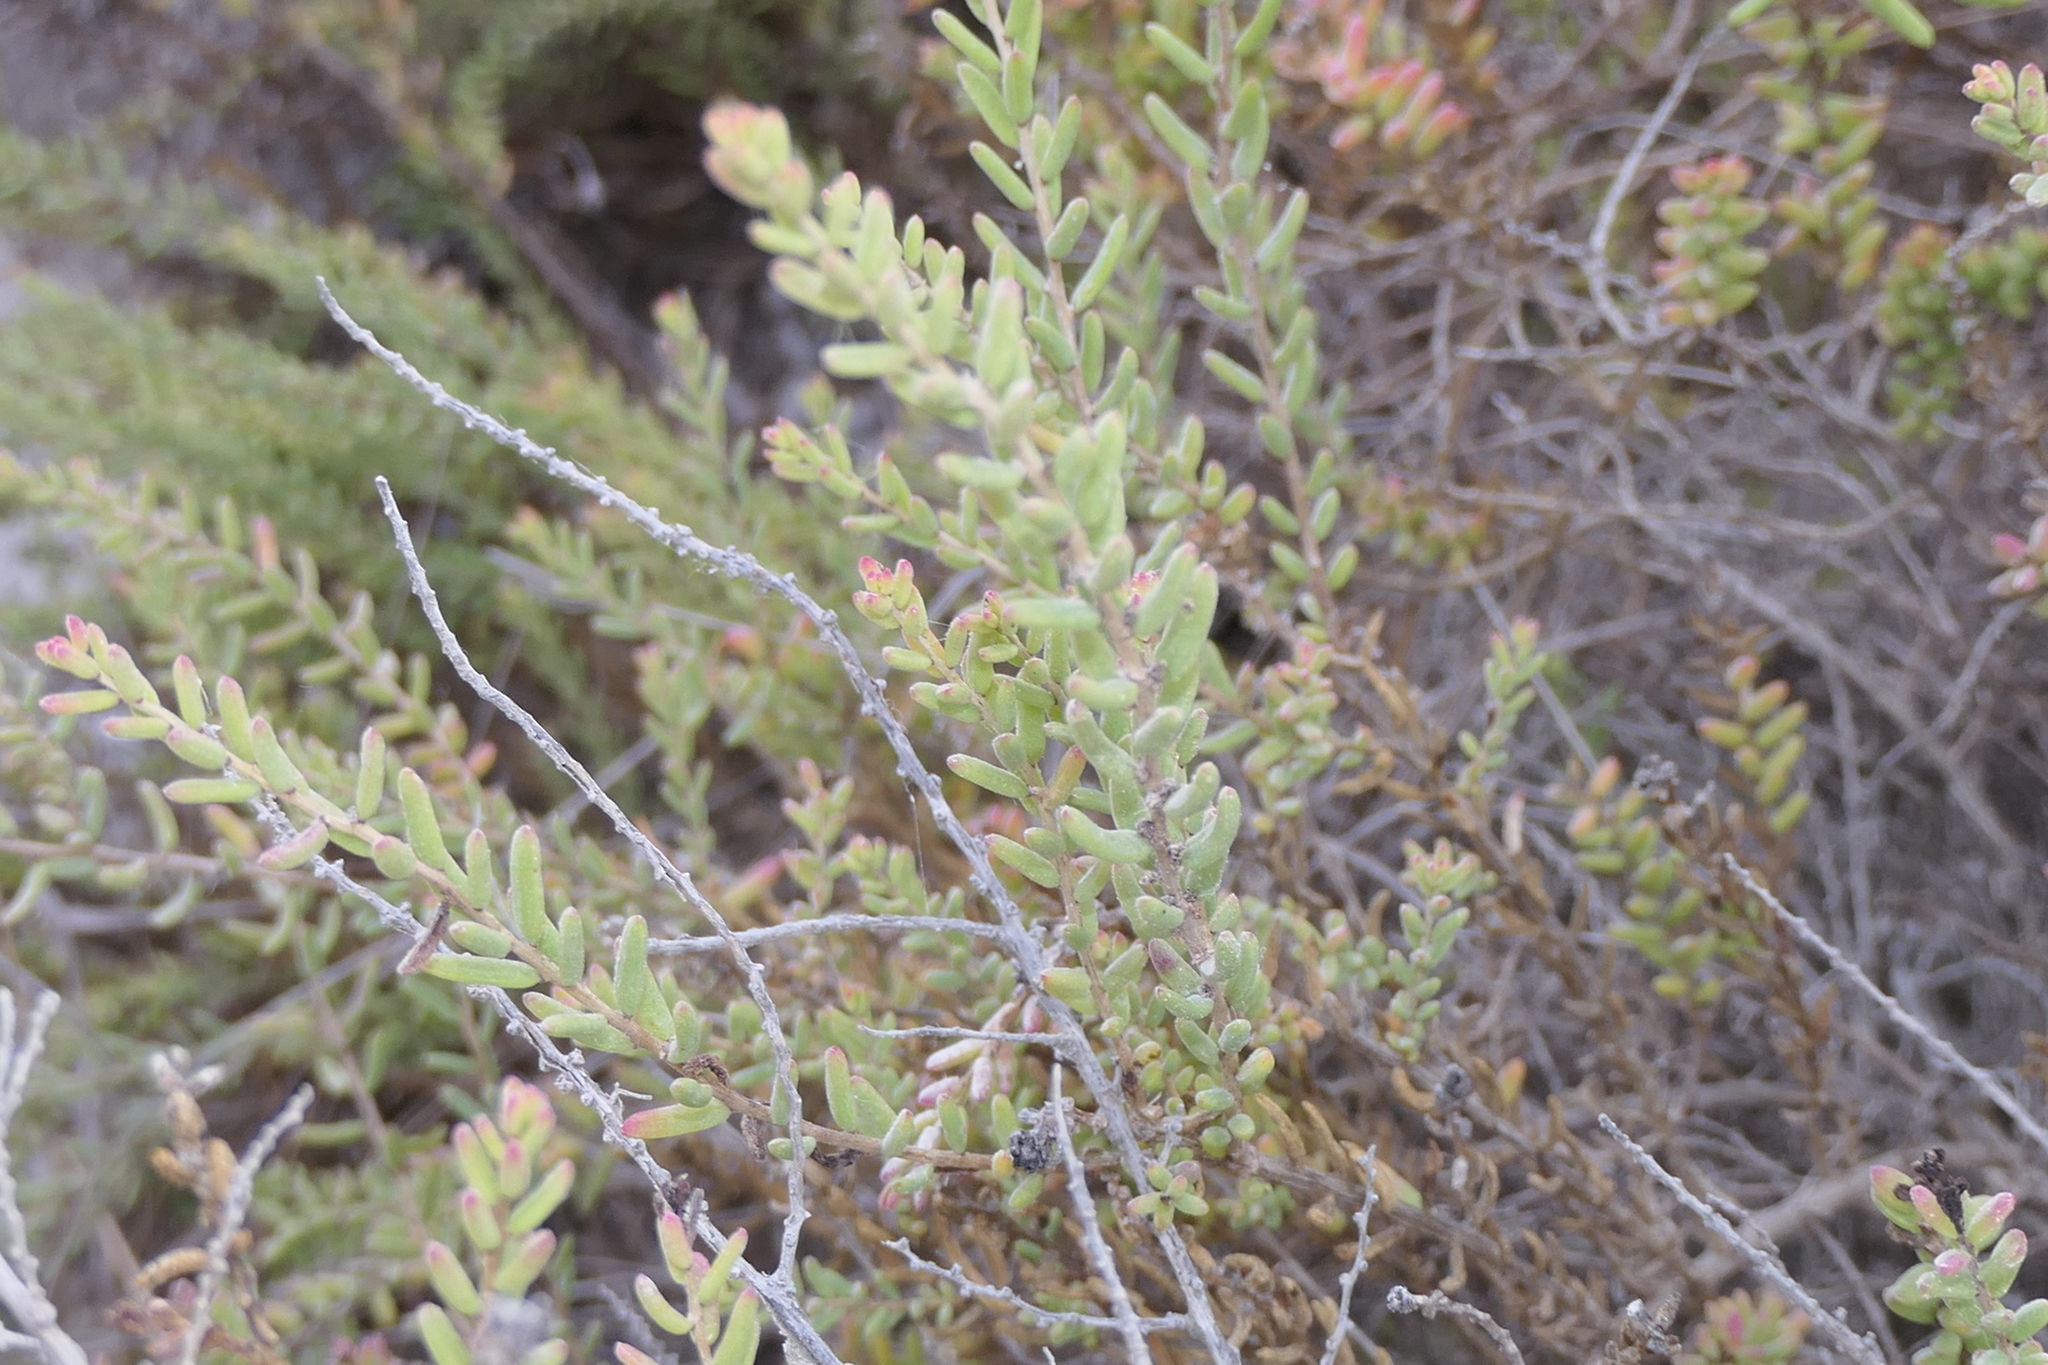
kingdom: Plantae
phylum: Tracheophyta
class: Magnoliopsida
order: Caryophyllales
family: Amaranthaceae
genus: Suaeda
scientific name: Suaeda vera
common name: Shrubby sea-blite
